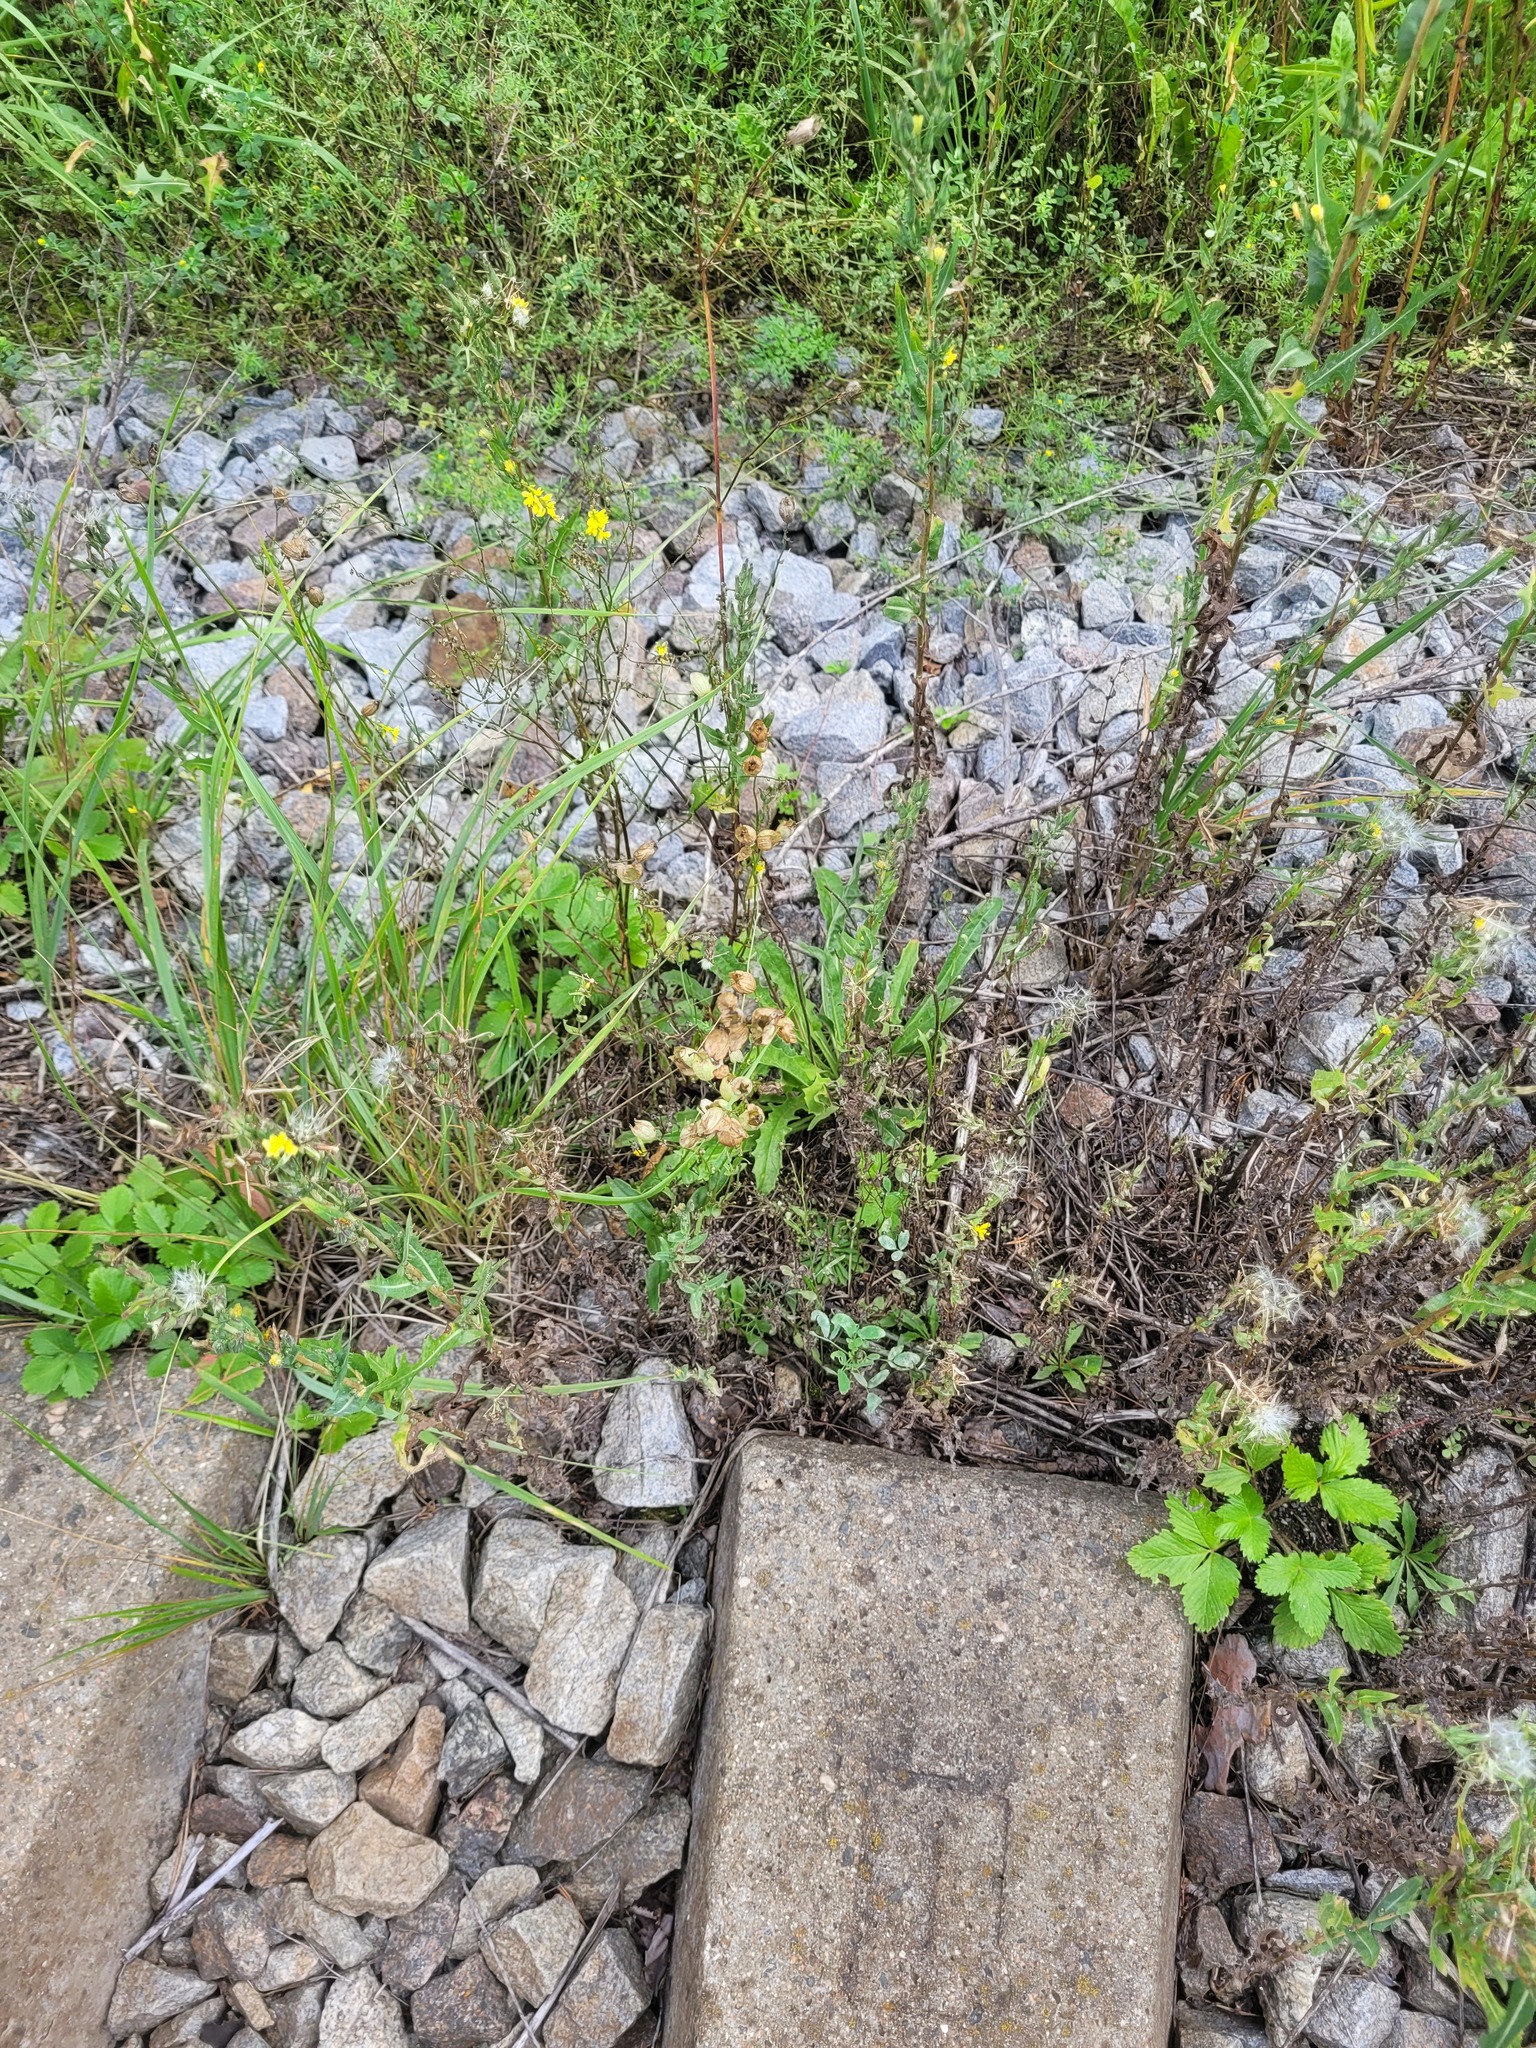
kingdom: Plantae
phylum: Tracheophyta
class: Magnoliopsida
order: Caryophyllales
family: Caryophyllaceae
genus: Silene
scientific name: Silene vulgaris
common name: Bladder campion
